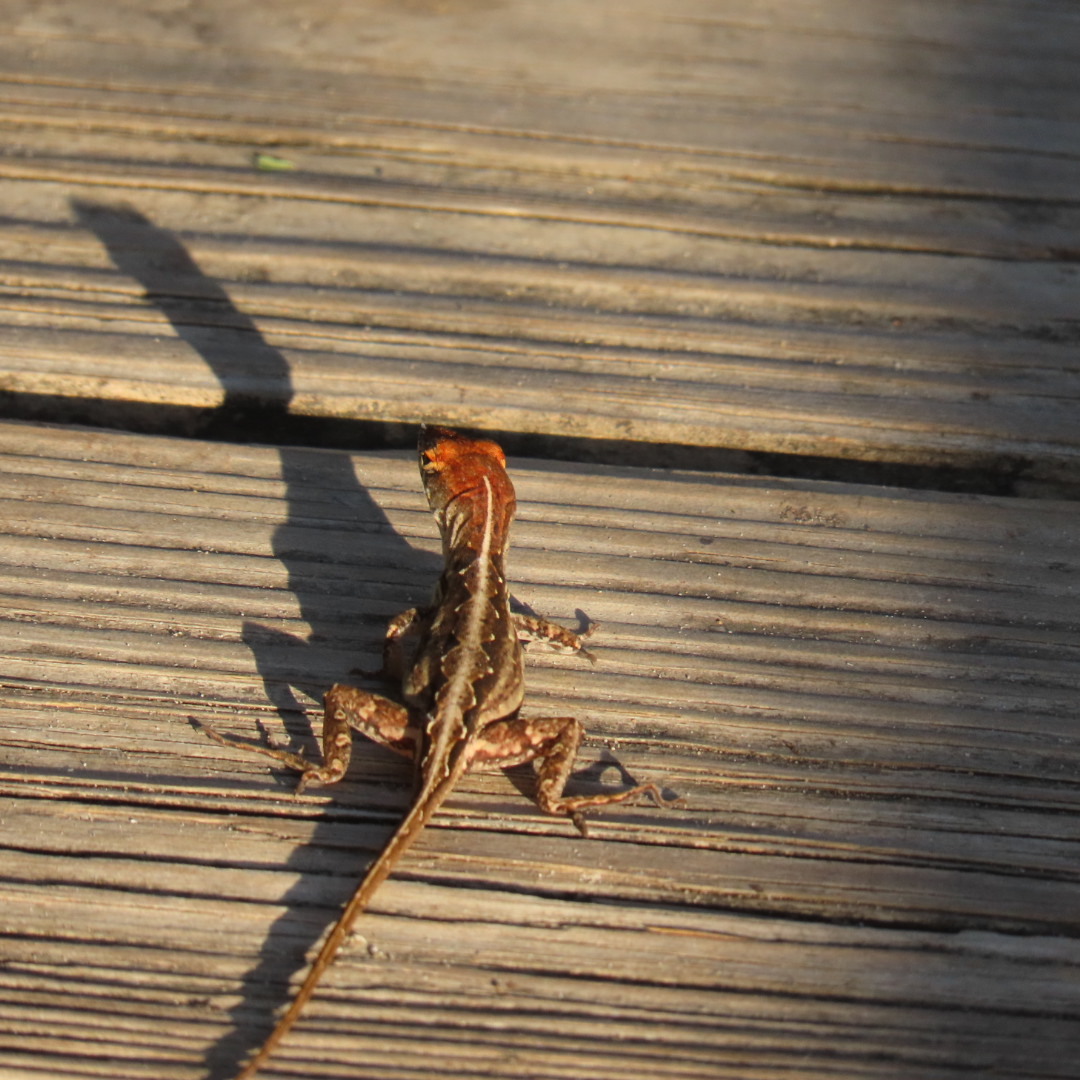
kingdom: Animalia
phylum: Chordata
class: Squamata
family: Dactyloidae
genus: Anolis
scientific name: Anolis sagrei
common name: Brown anole
